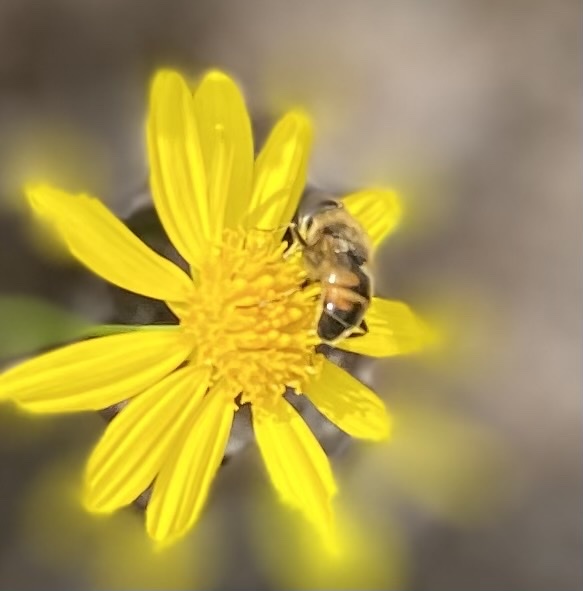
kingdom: Animalia
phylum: Arthropoda
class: Insecta
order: Diptera
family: Syrphidae
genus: Eristalis
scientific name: Eristalis tenax
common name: Drone fly
